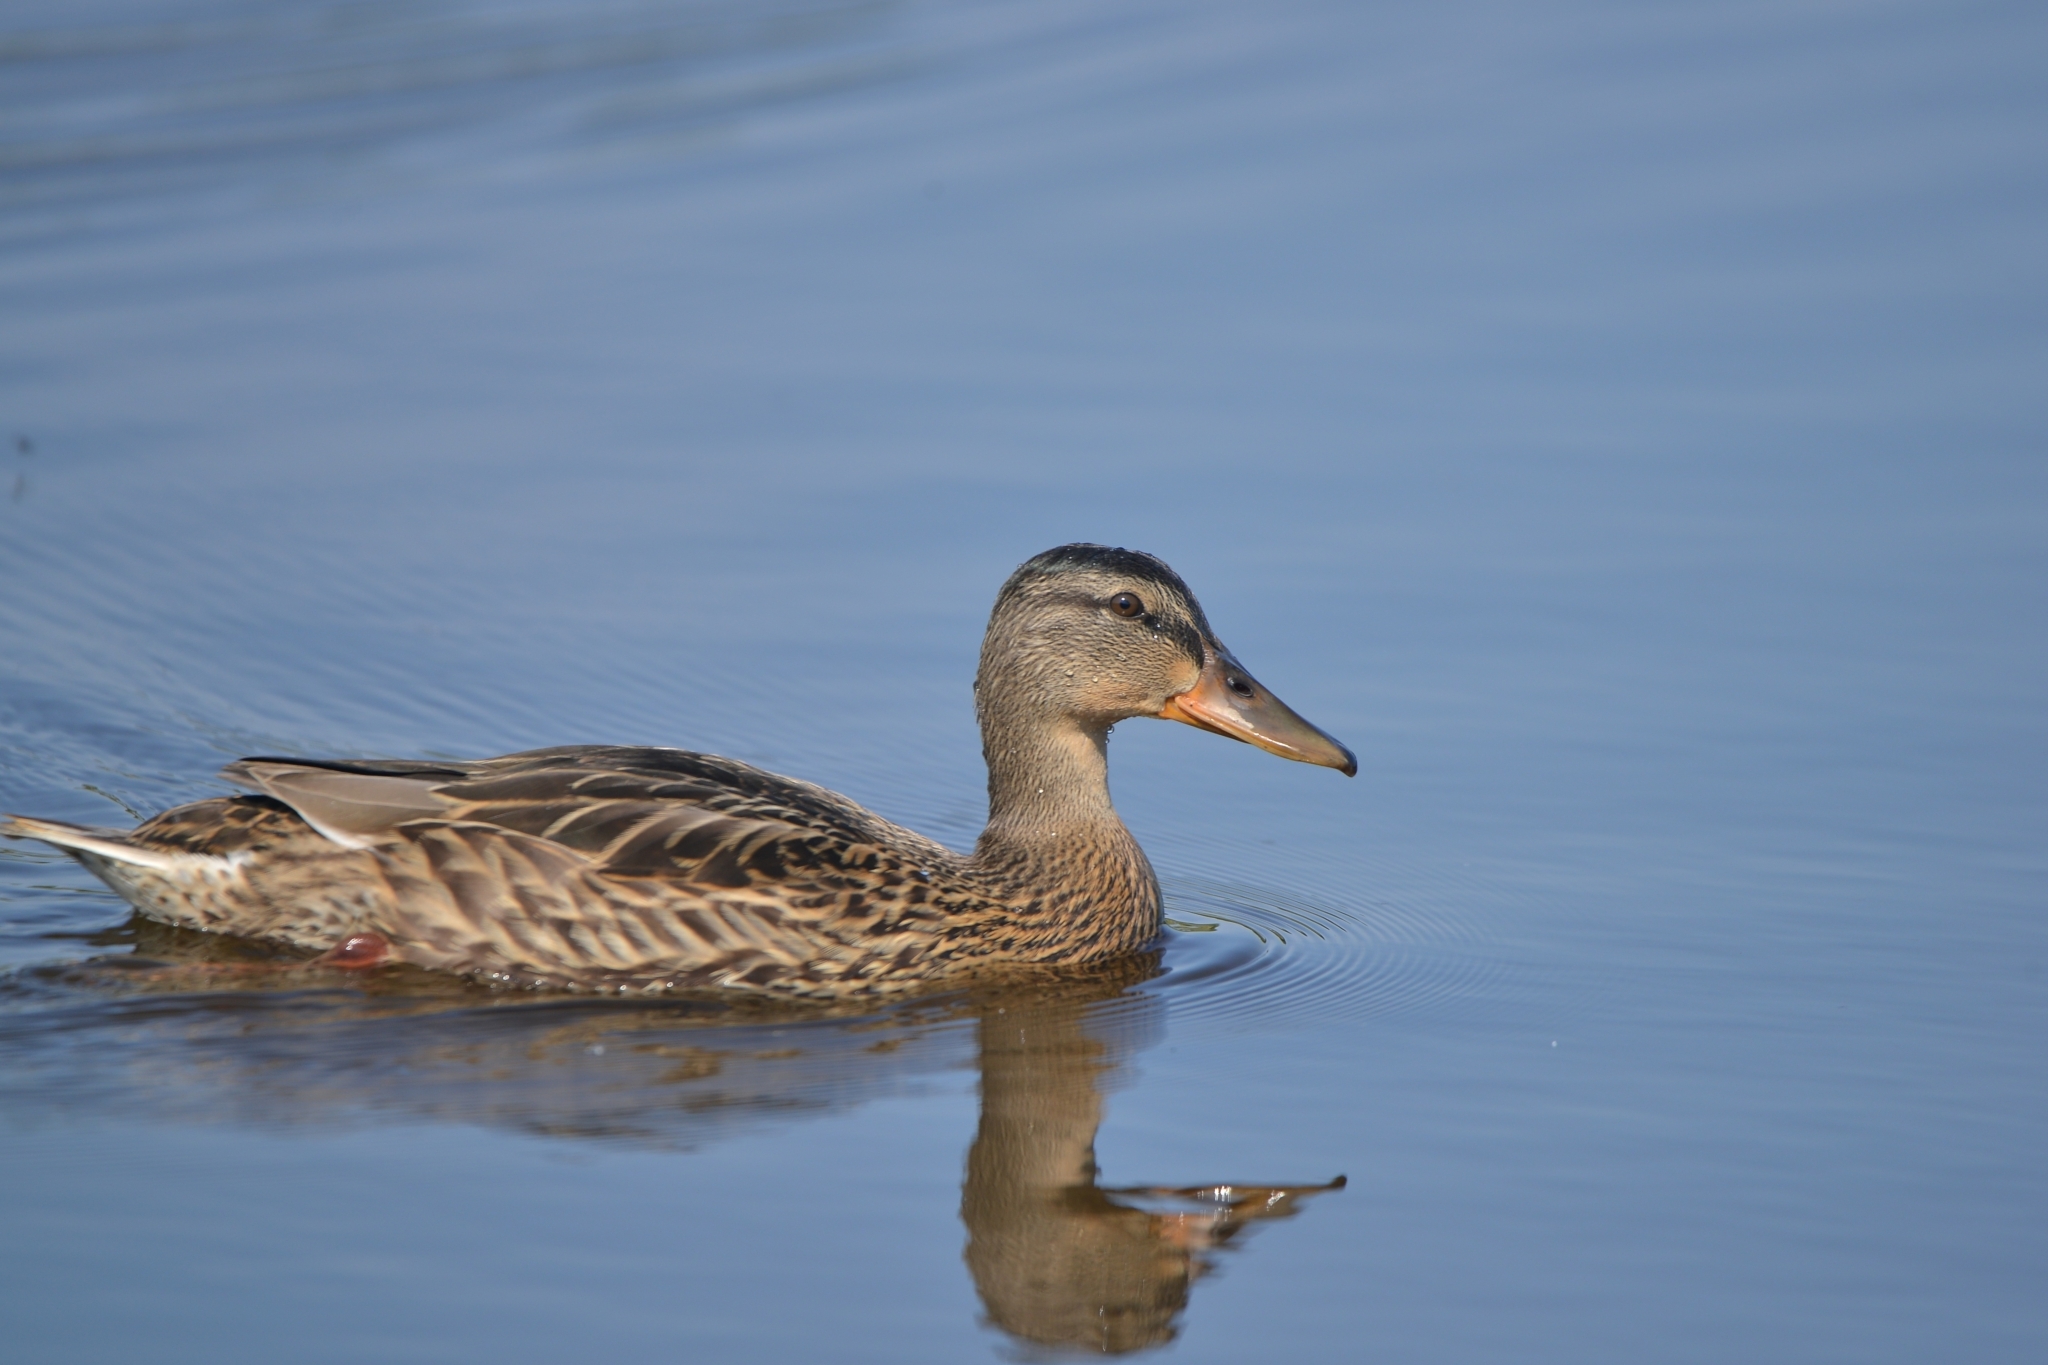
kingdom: Animalia
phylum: Chordata
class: Aves
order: Anseriformes
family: Anatidae
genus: Anas
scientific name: Anas platyrhynchos
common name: Mallard
